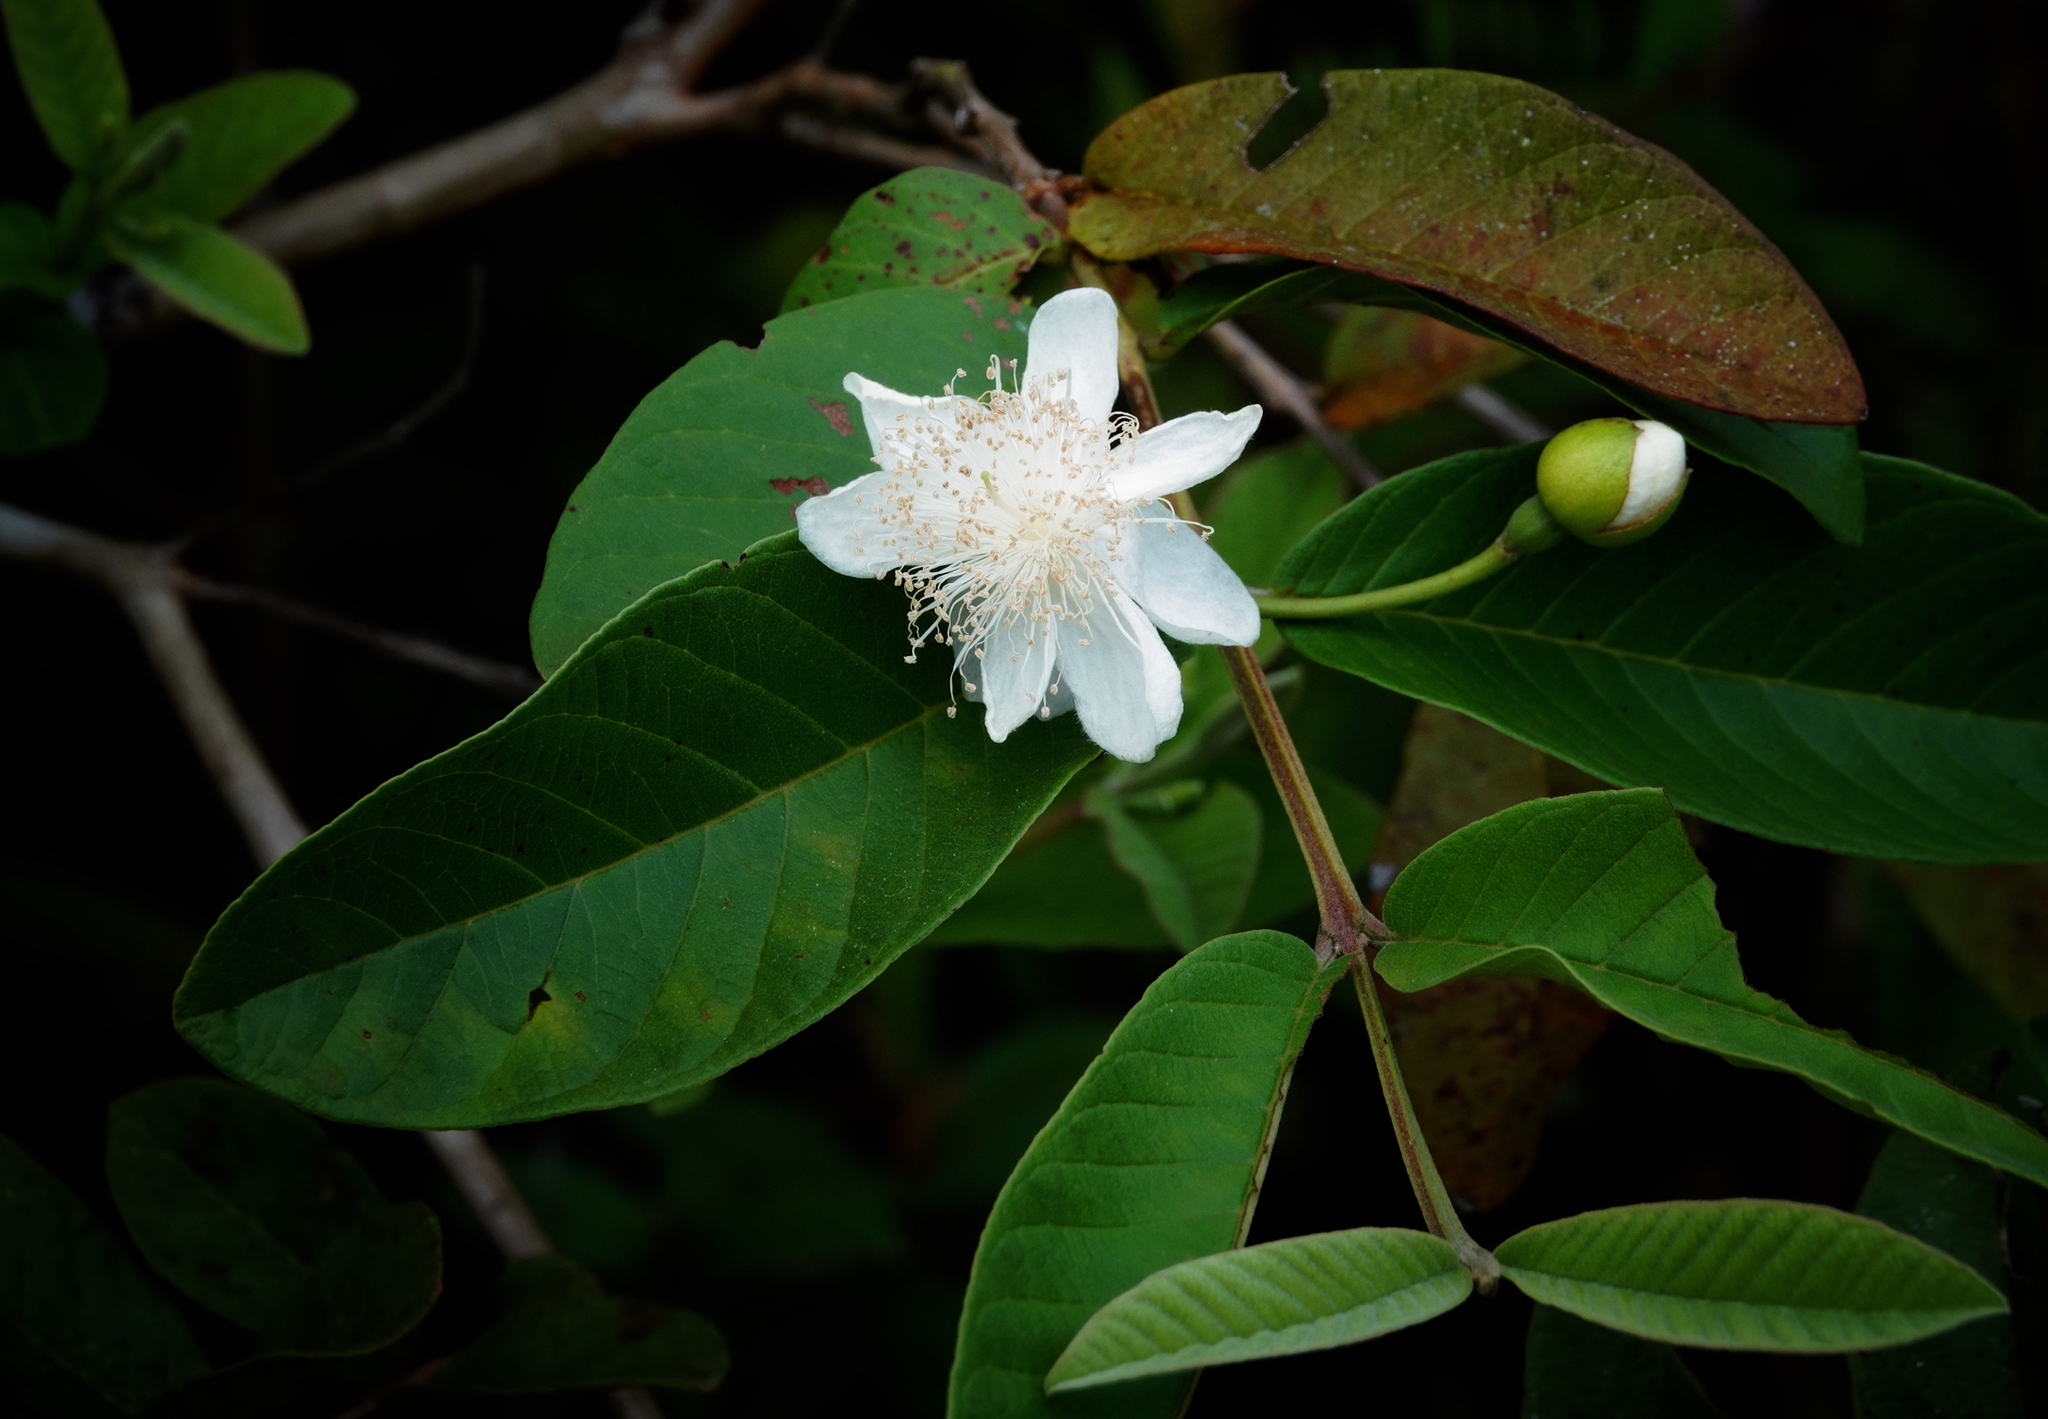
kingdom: Plantae
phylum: Tracheophyta
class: Magnoliopsida
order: Myrtales
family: Myrtaceae
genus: Psidium
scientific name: Psidium guajava
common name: Guava
